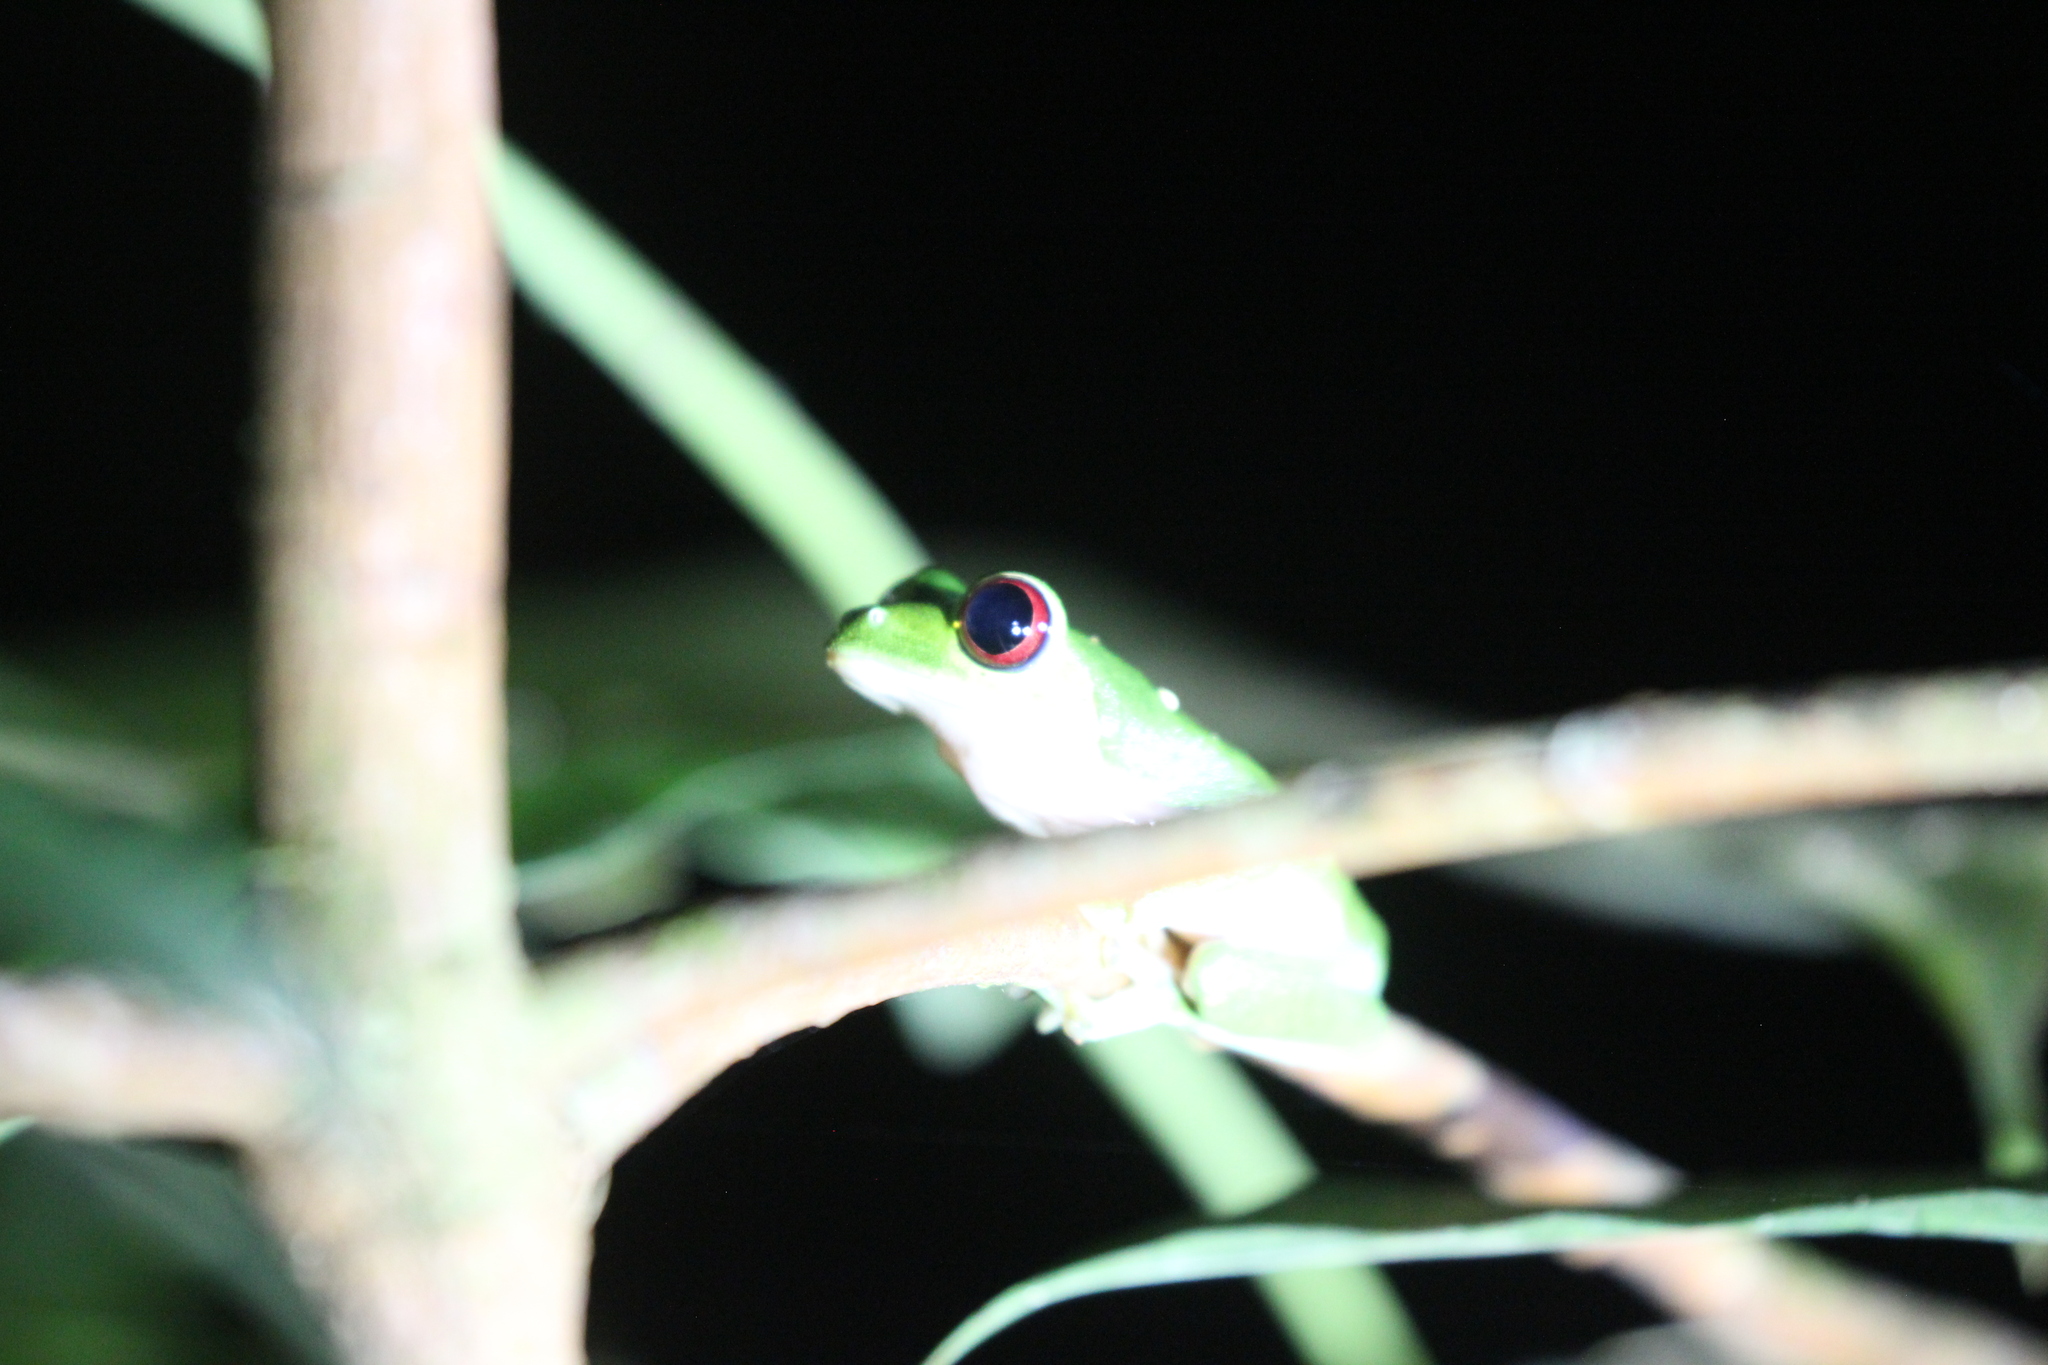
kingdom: Animalia
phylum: Chordata
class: Amphibia
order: Anura
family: Phyllomedusidae
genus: Agalychnis
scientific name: Agalychnis callidryas
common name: Red-eyed treefrog
